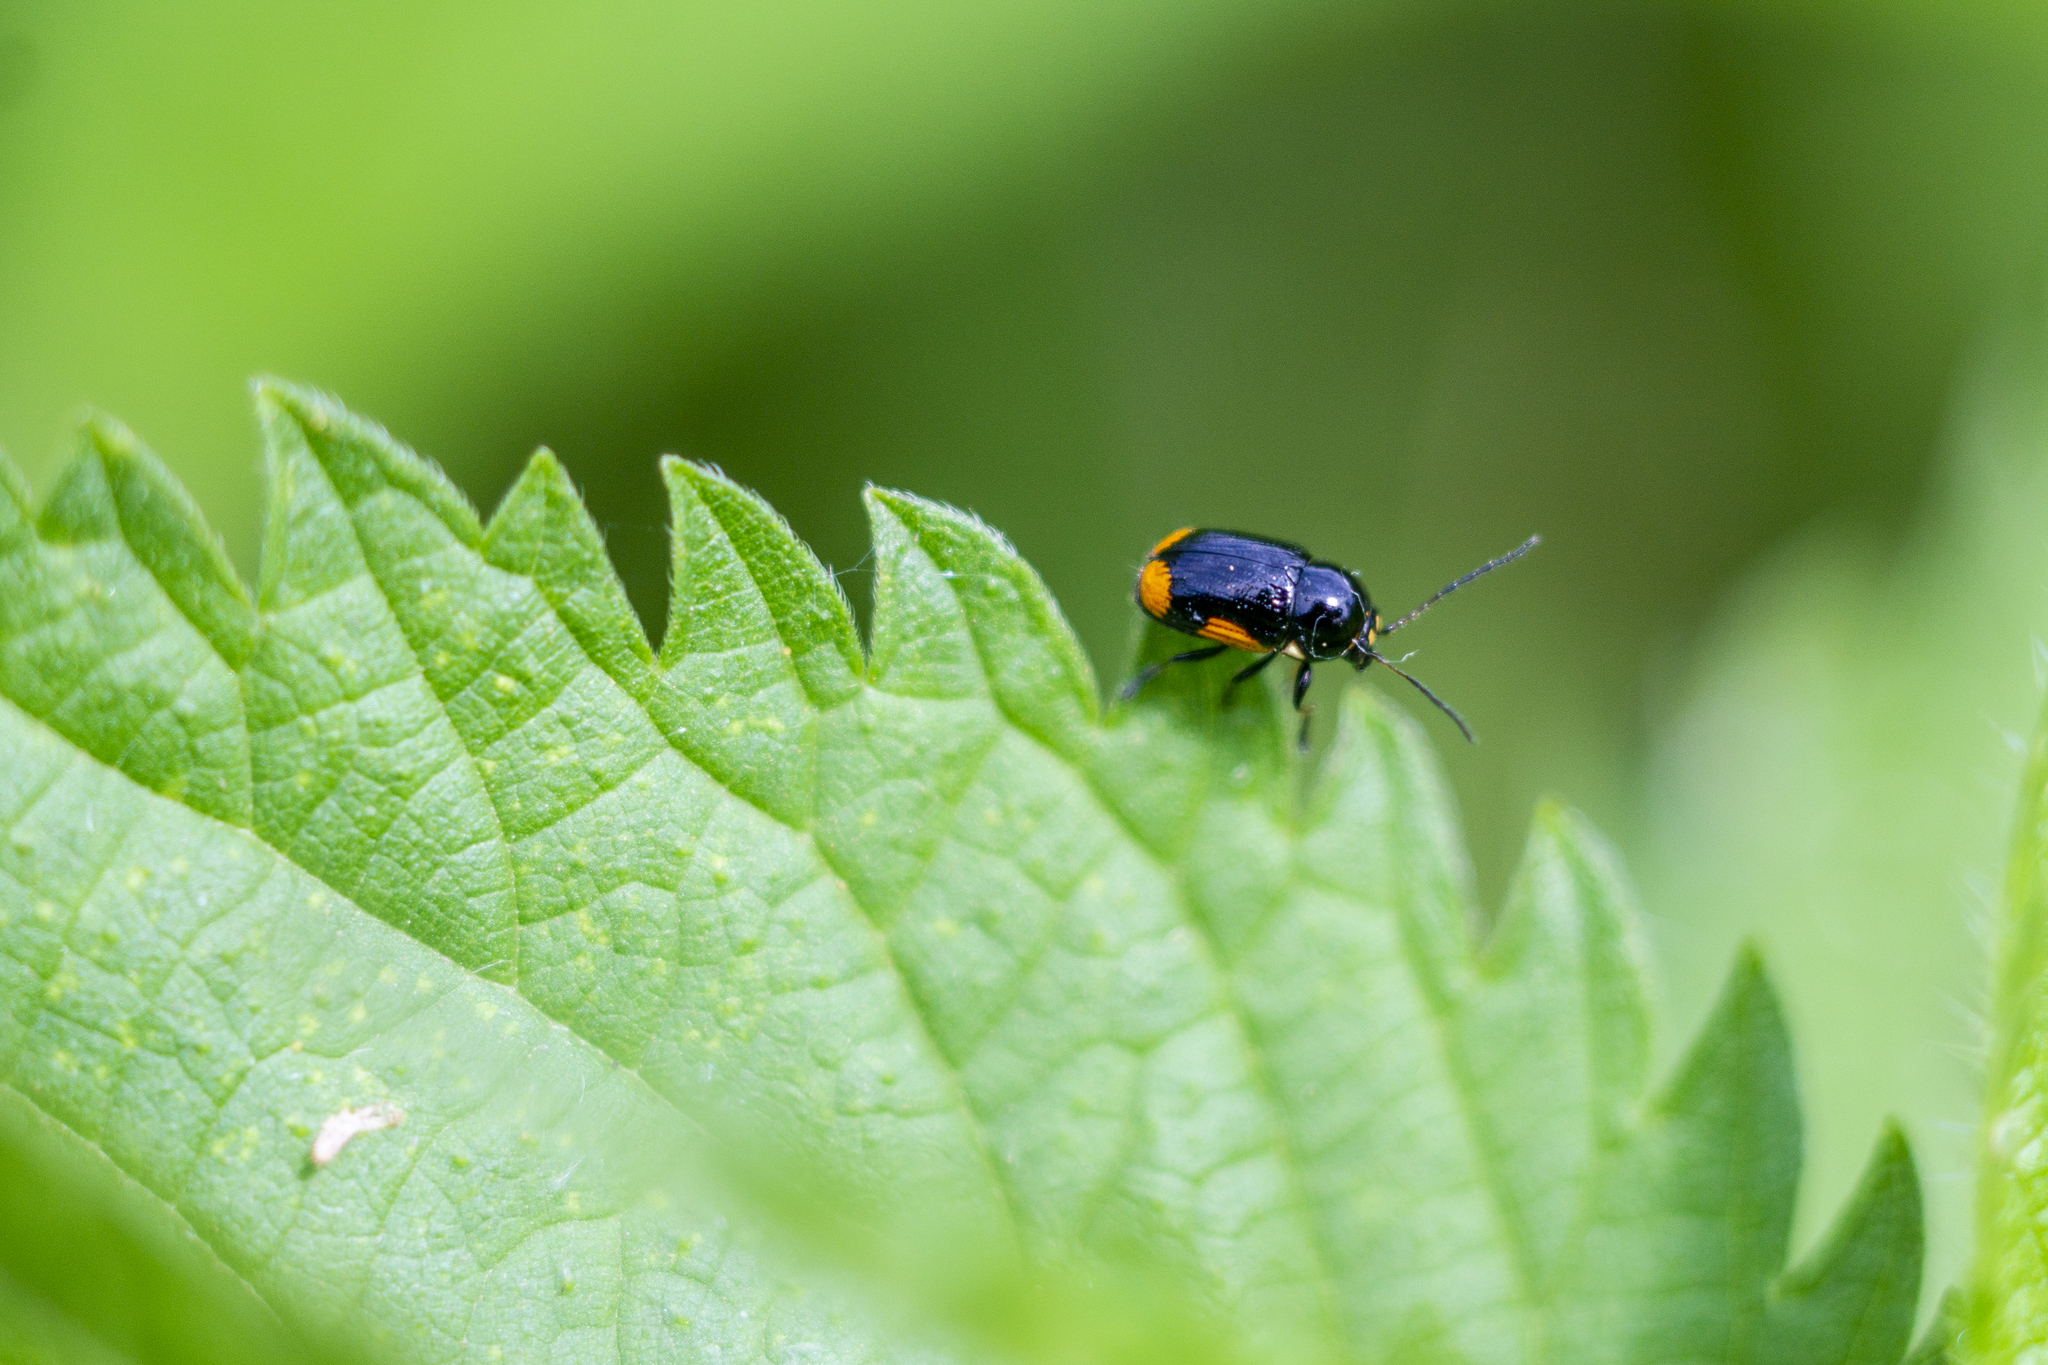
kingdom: Animalia
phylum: Arthropoda
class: Insecta
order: Coleoptera
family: Chrysomelidae
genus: Cryptocephalus
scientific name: Cryptocephalus moraei
